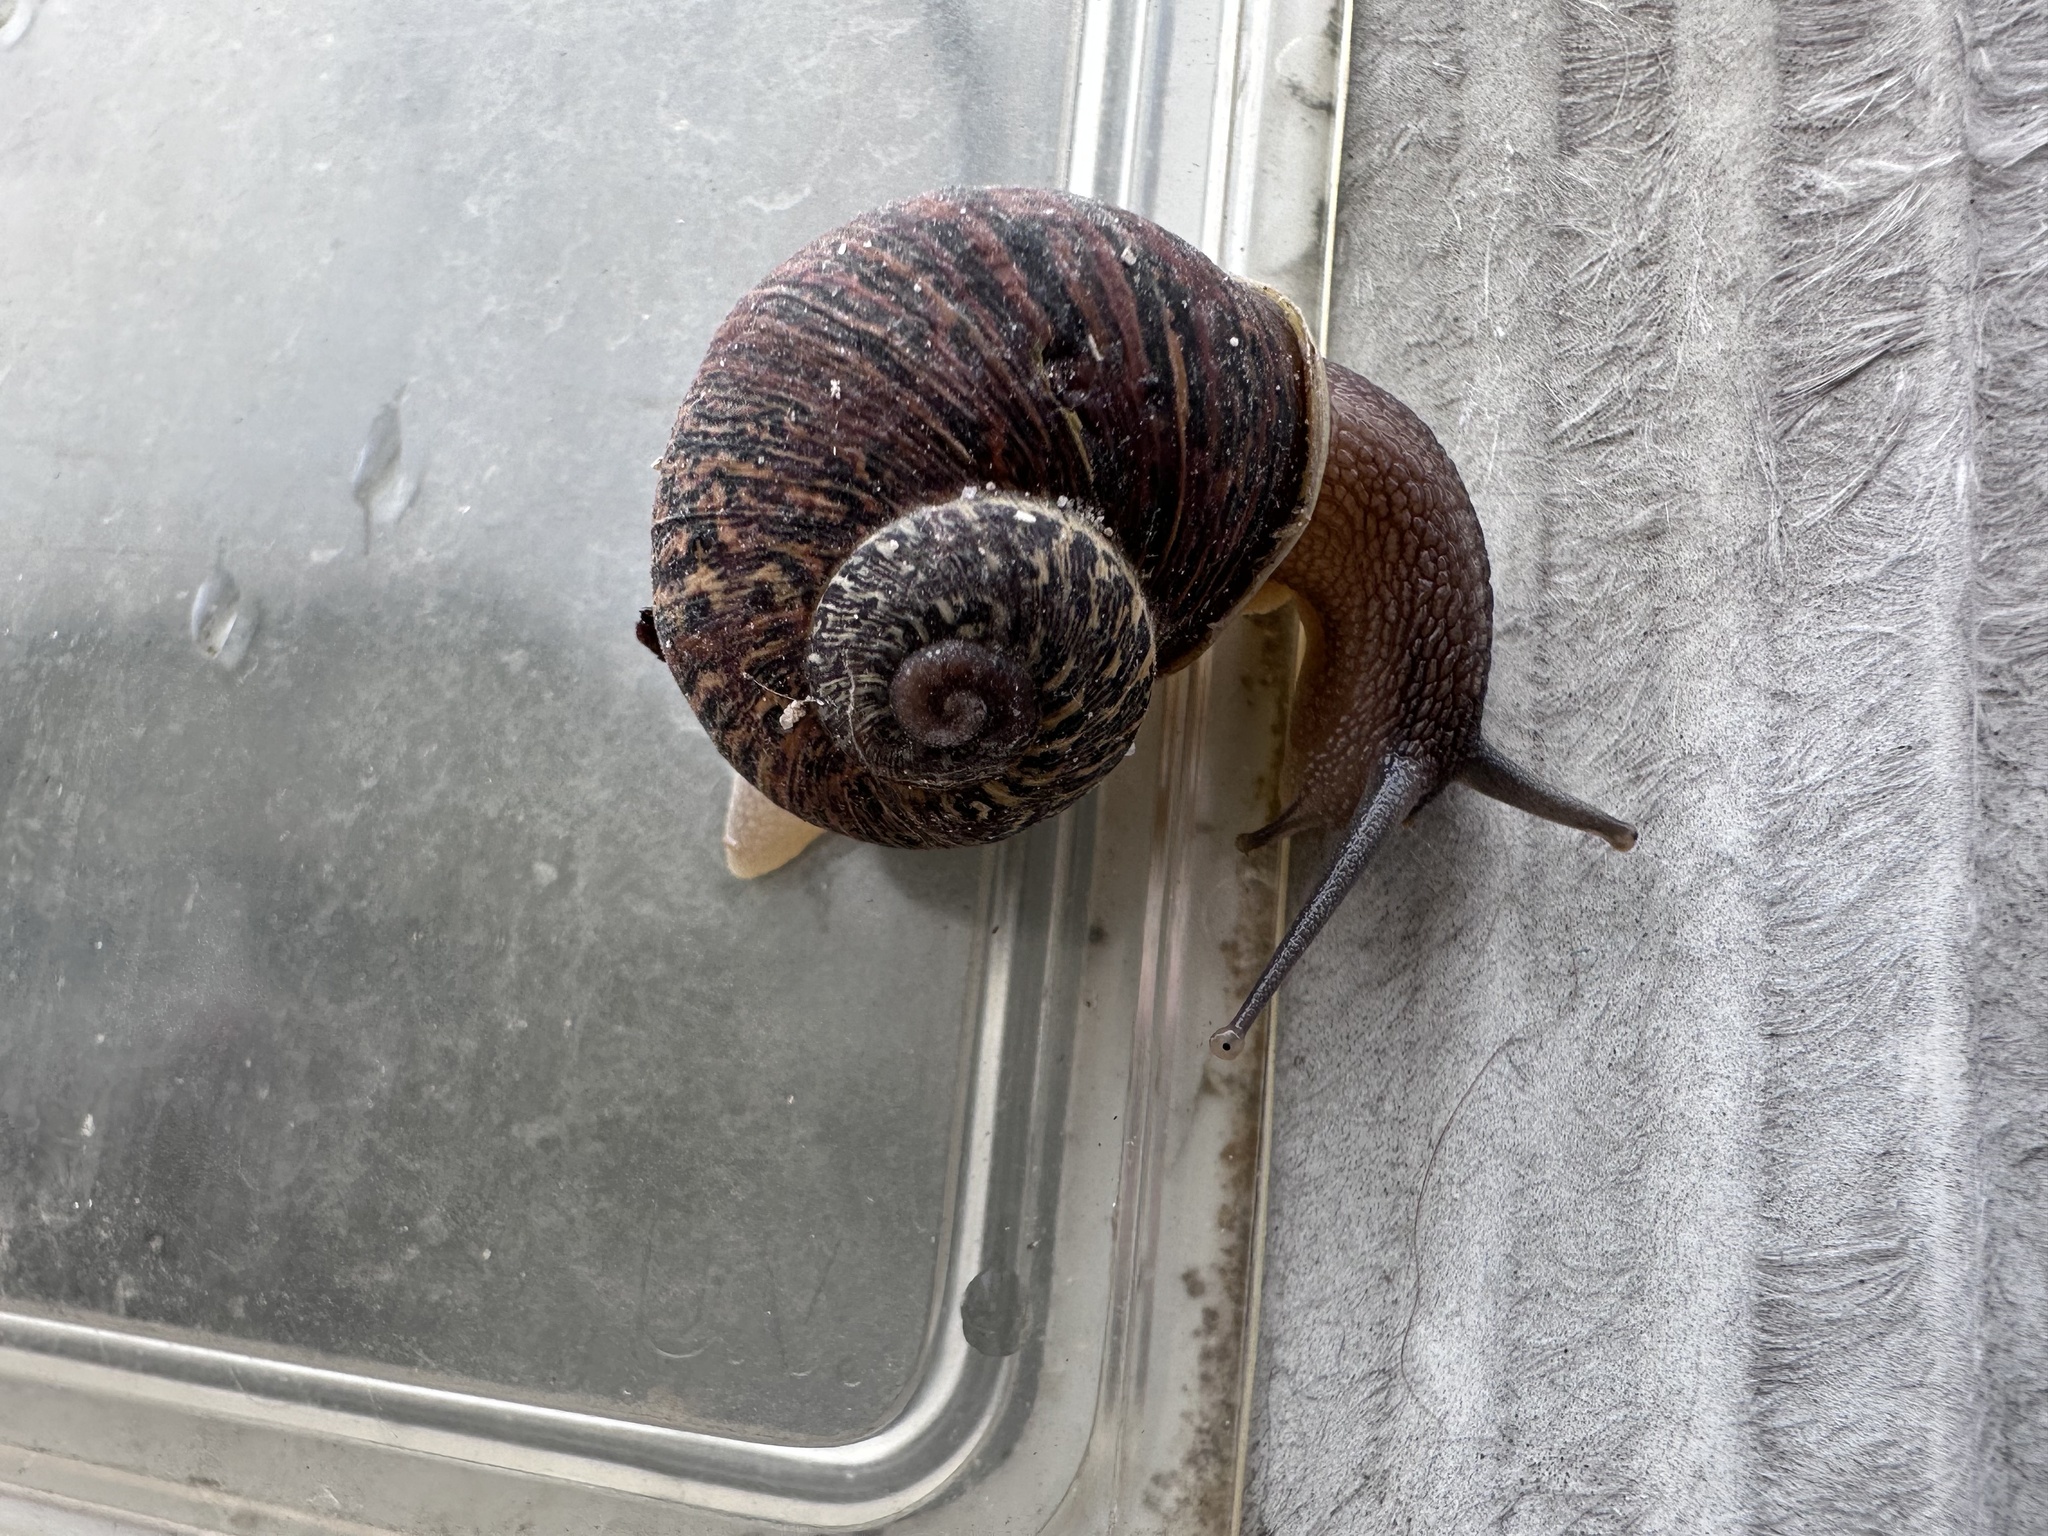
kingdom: Animalia
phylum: Mollusca
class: Gastropoda
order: Stylommatophora
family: Helicidae
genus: Cornu
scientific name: Cornu aspersum
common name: Brown garden snail
